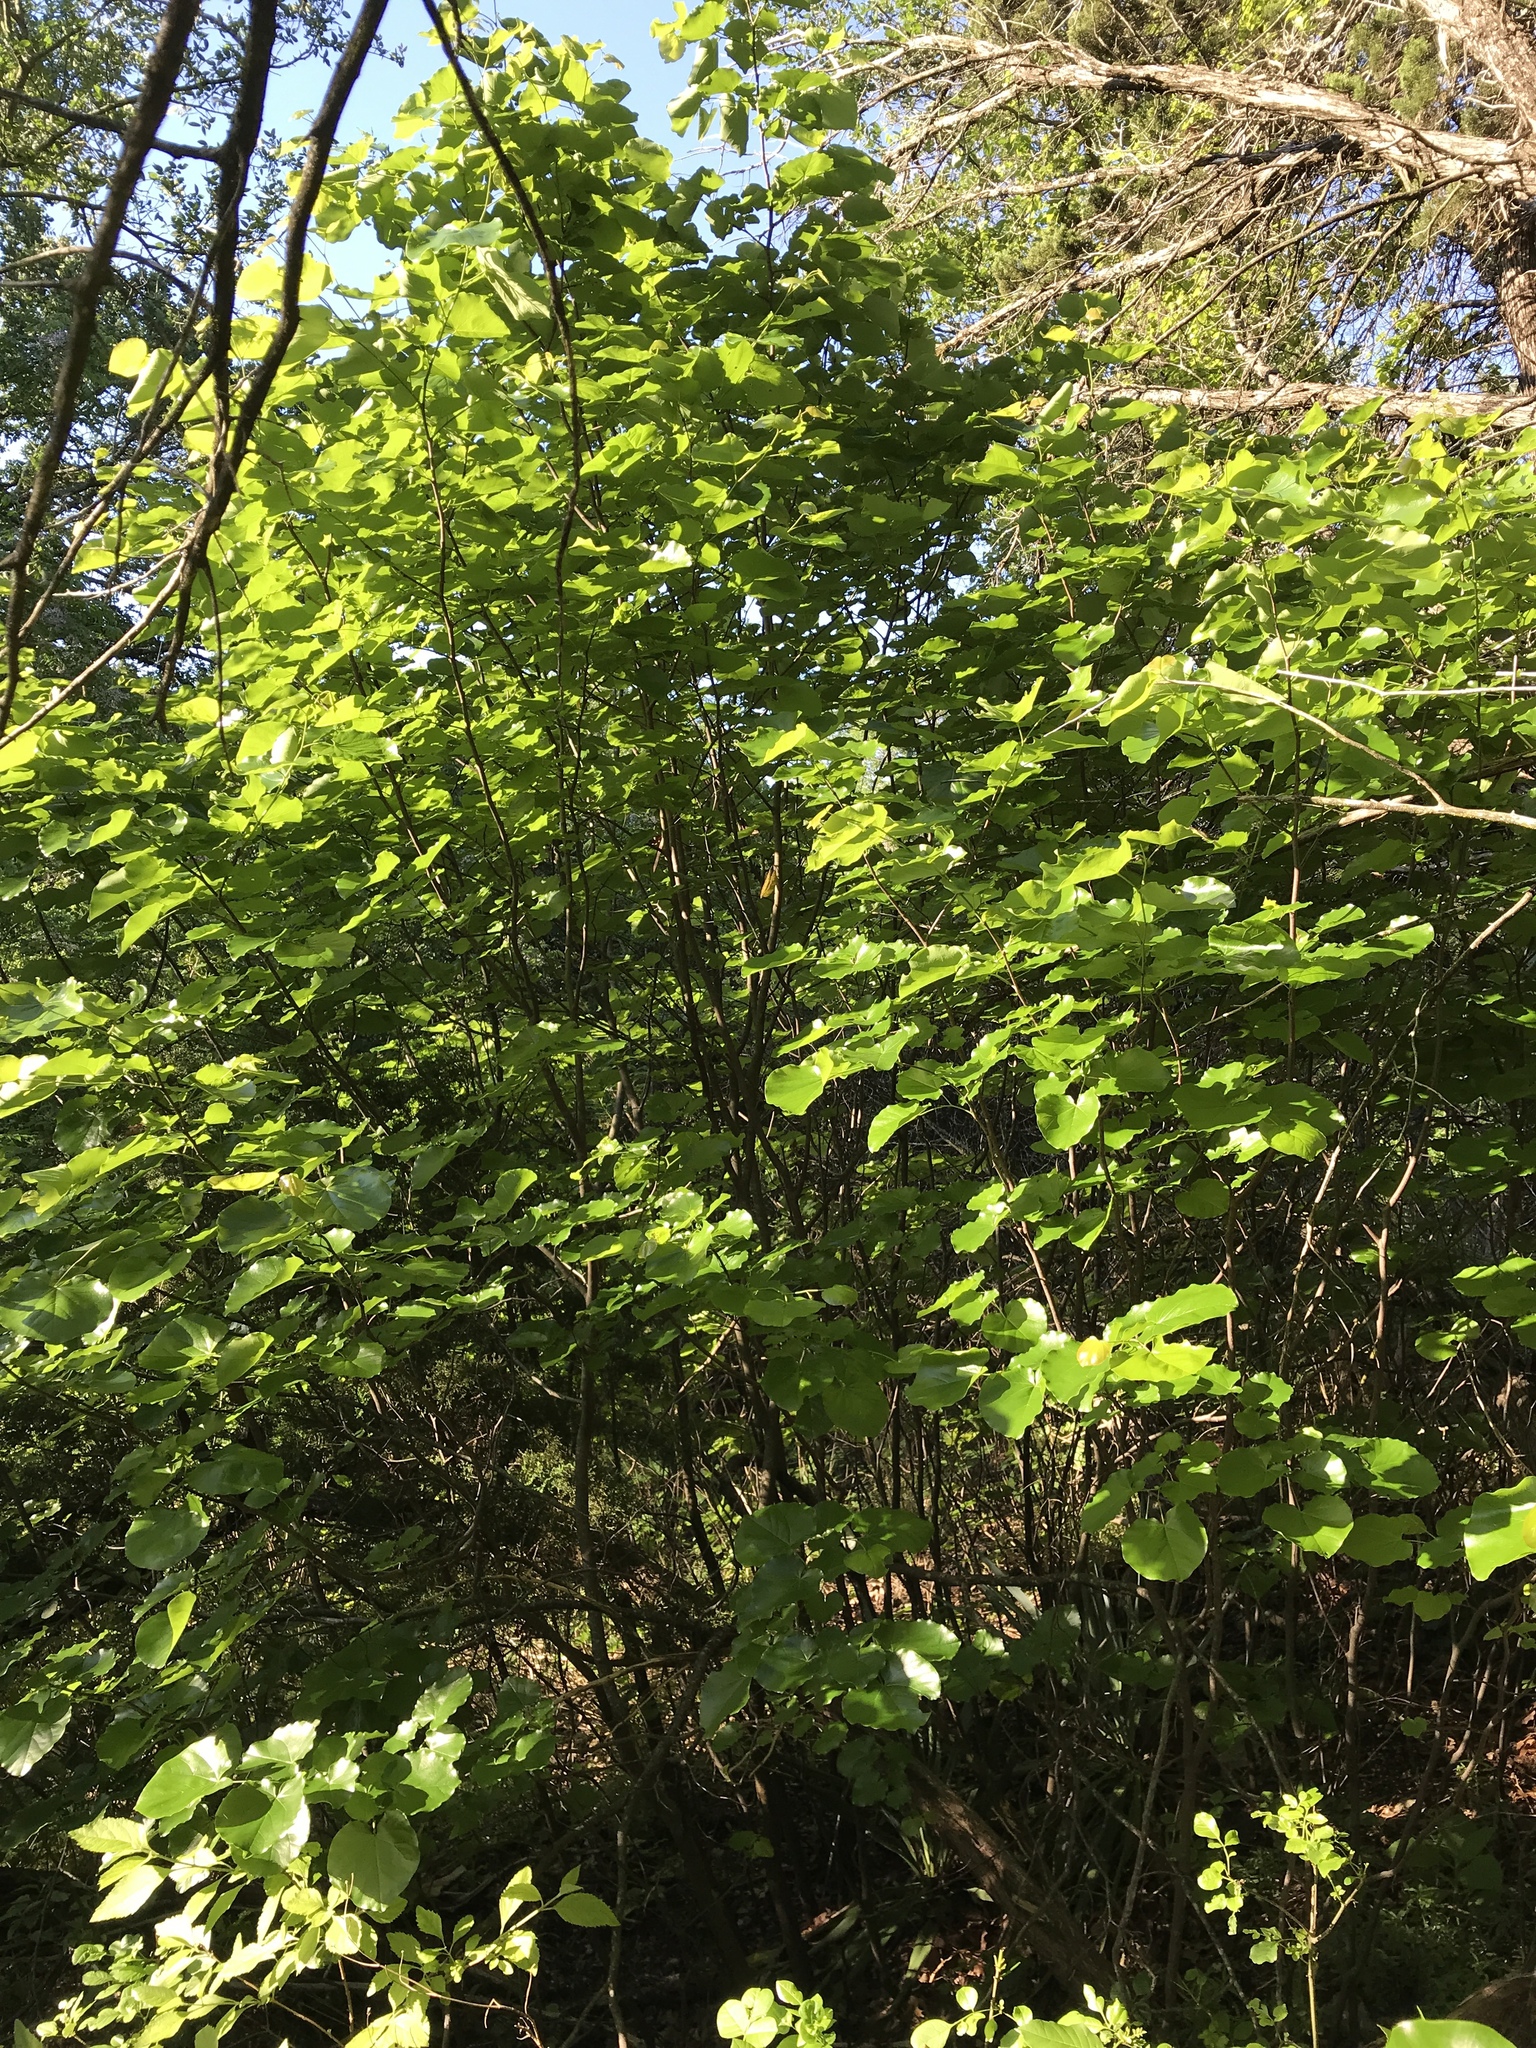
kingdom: Plantae
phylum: Tracheophyta
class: Magnoliopsida
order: Fabales
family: Fabaceae
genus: Cercis
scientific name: Cercis canadensis
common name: Eastern redbud
